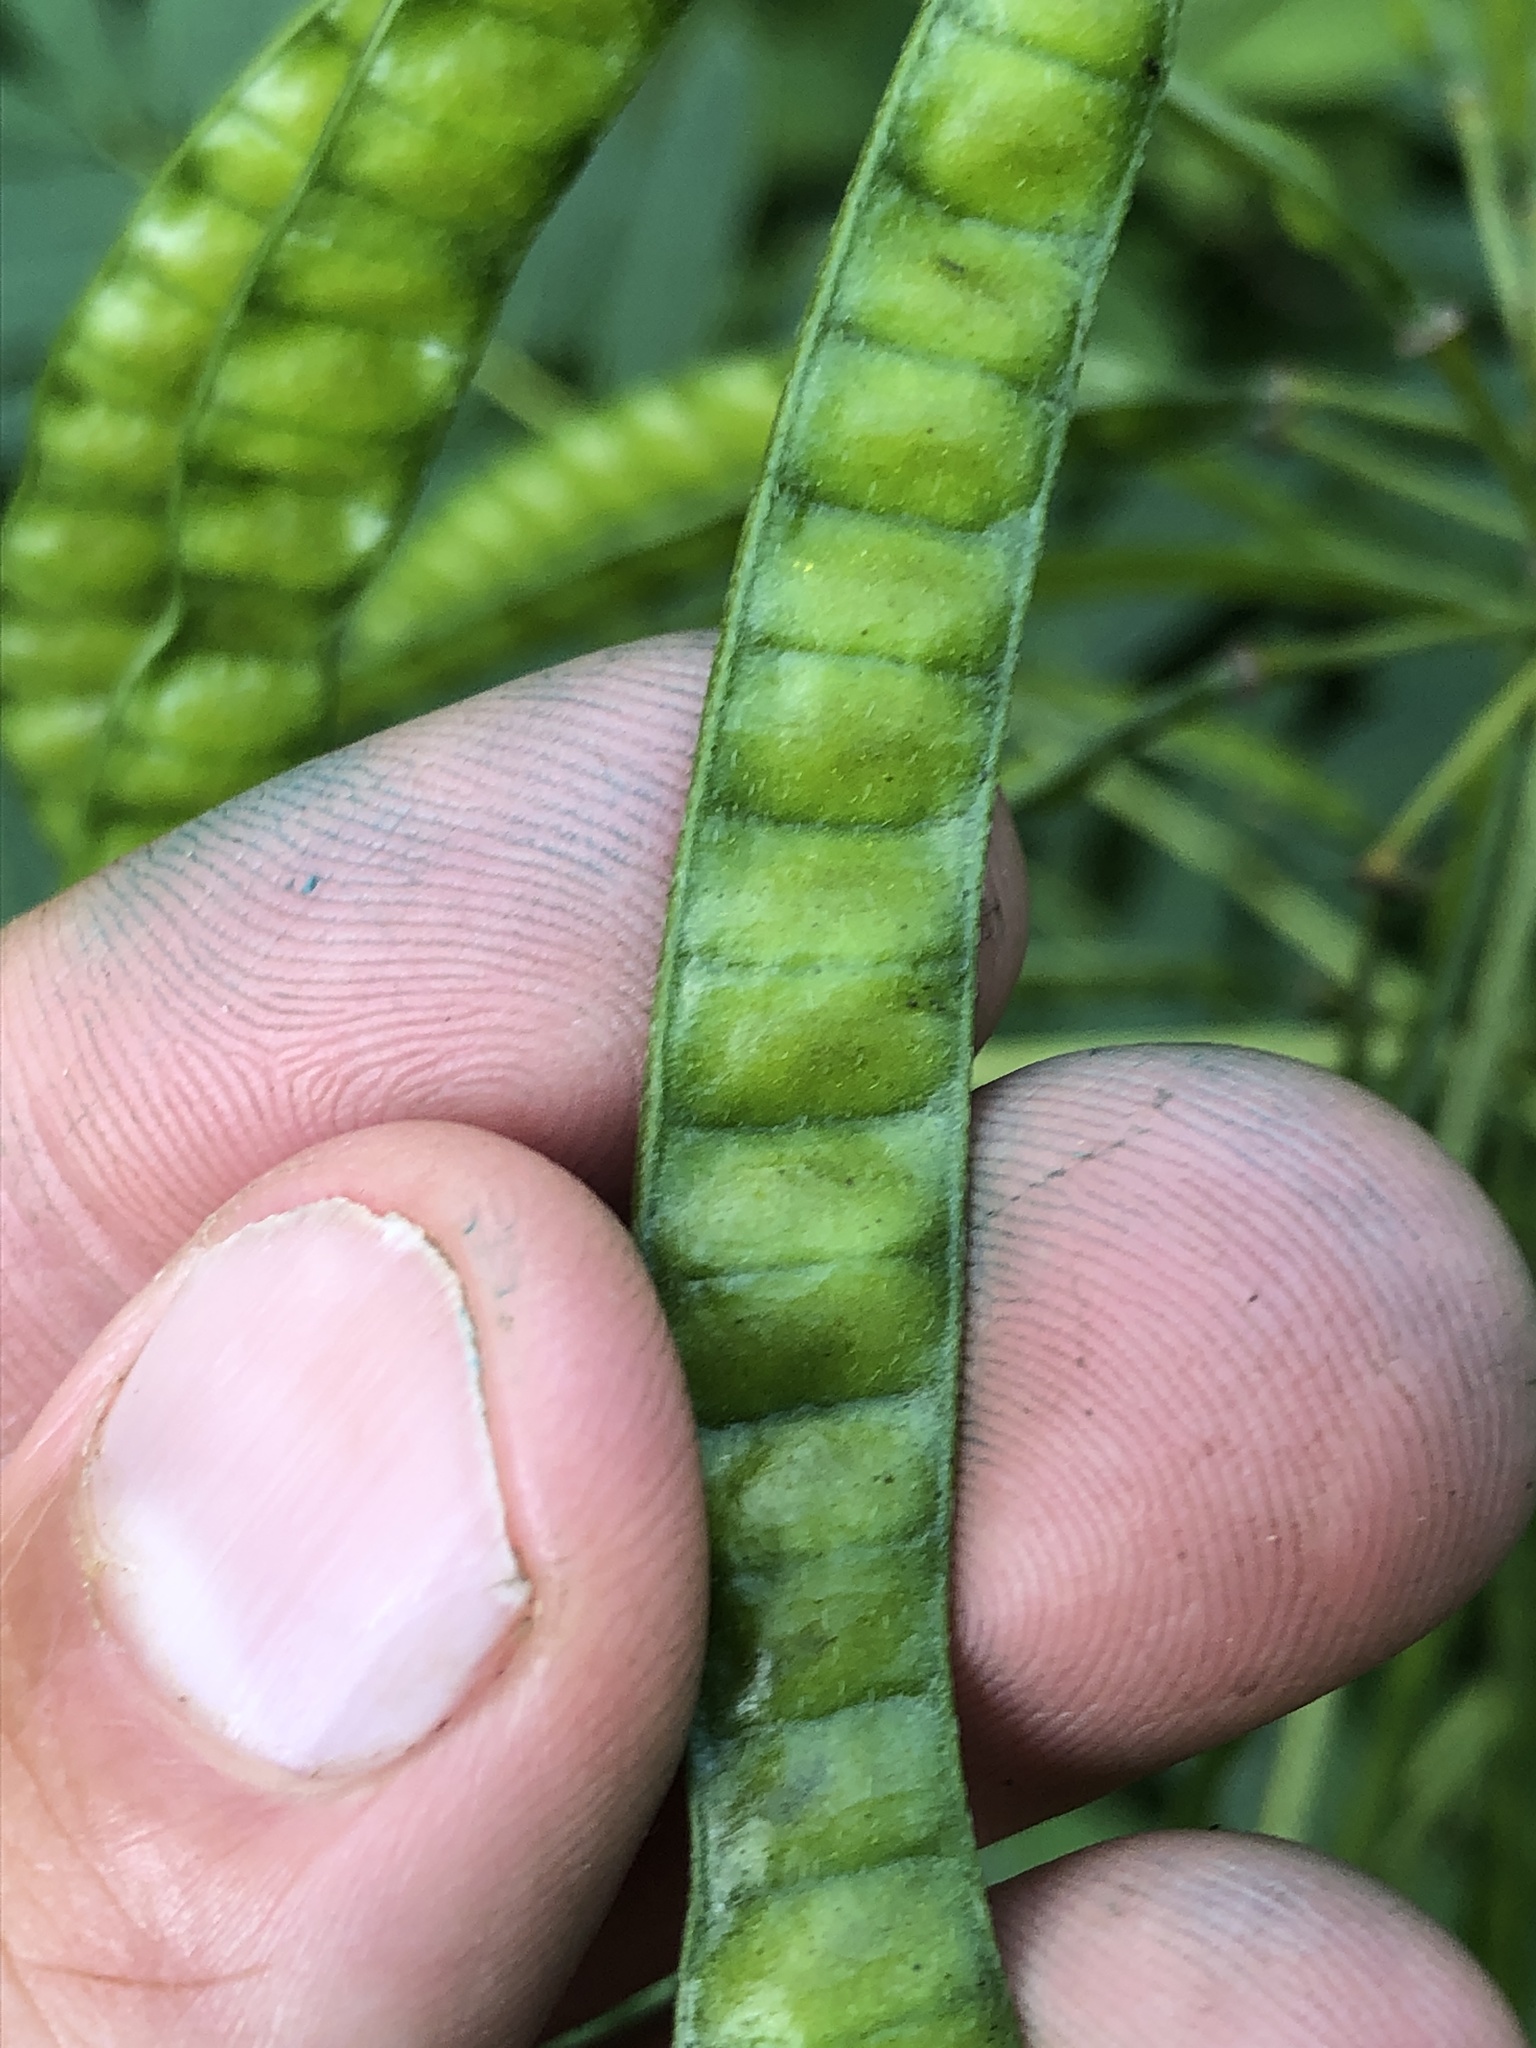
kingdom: Plantae
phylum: Tracheophyta
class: Magnoliopsida
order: Fabales
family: Fabaceae
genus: Senna
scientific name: Senna marilandica
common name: American senna
